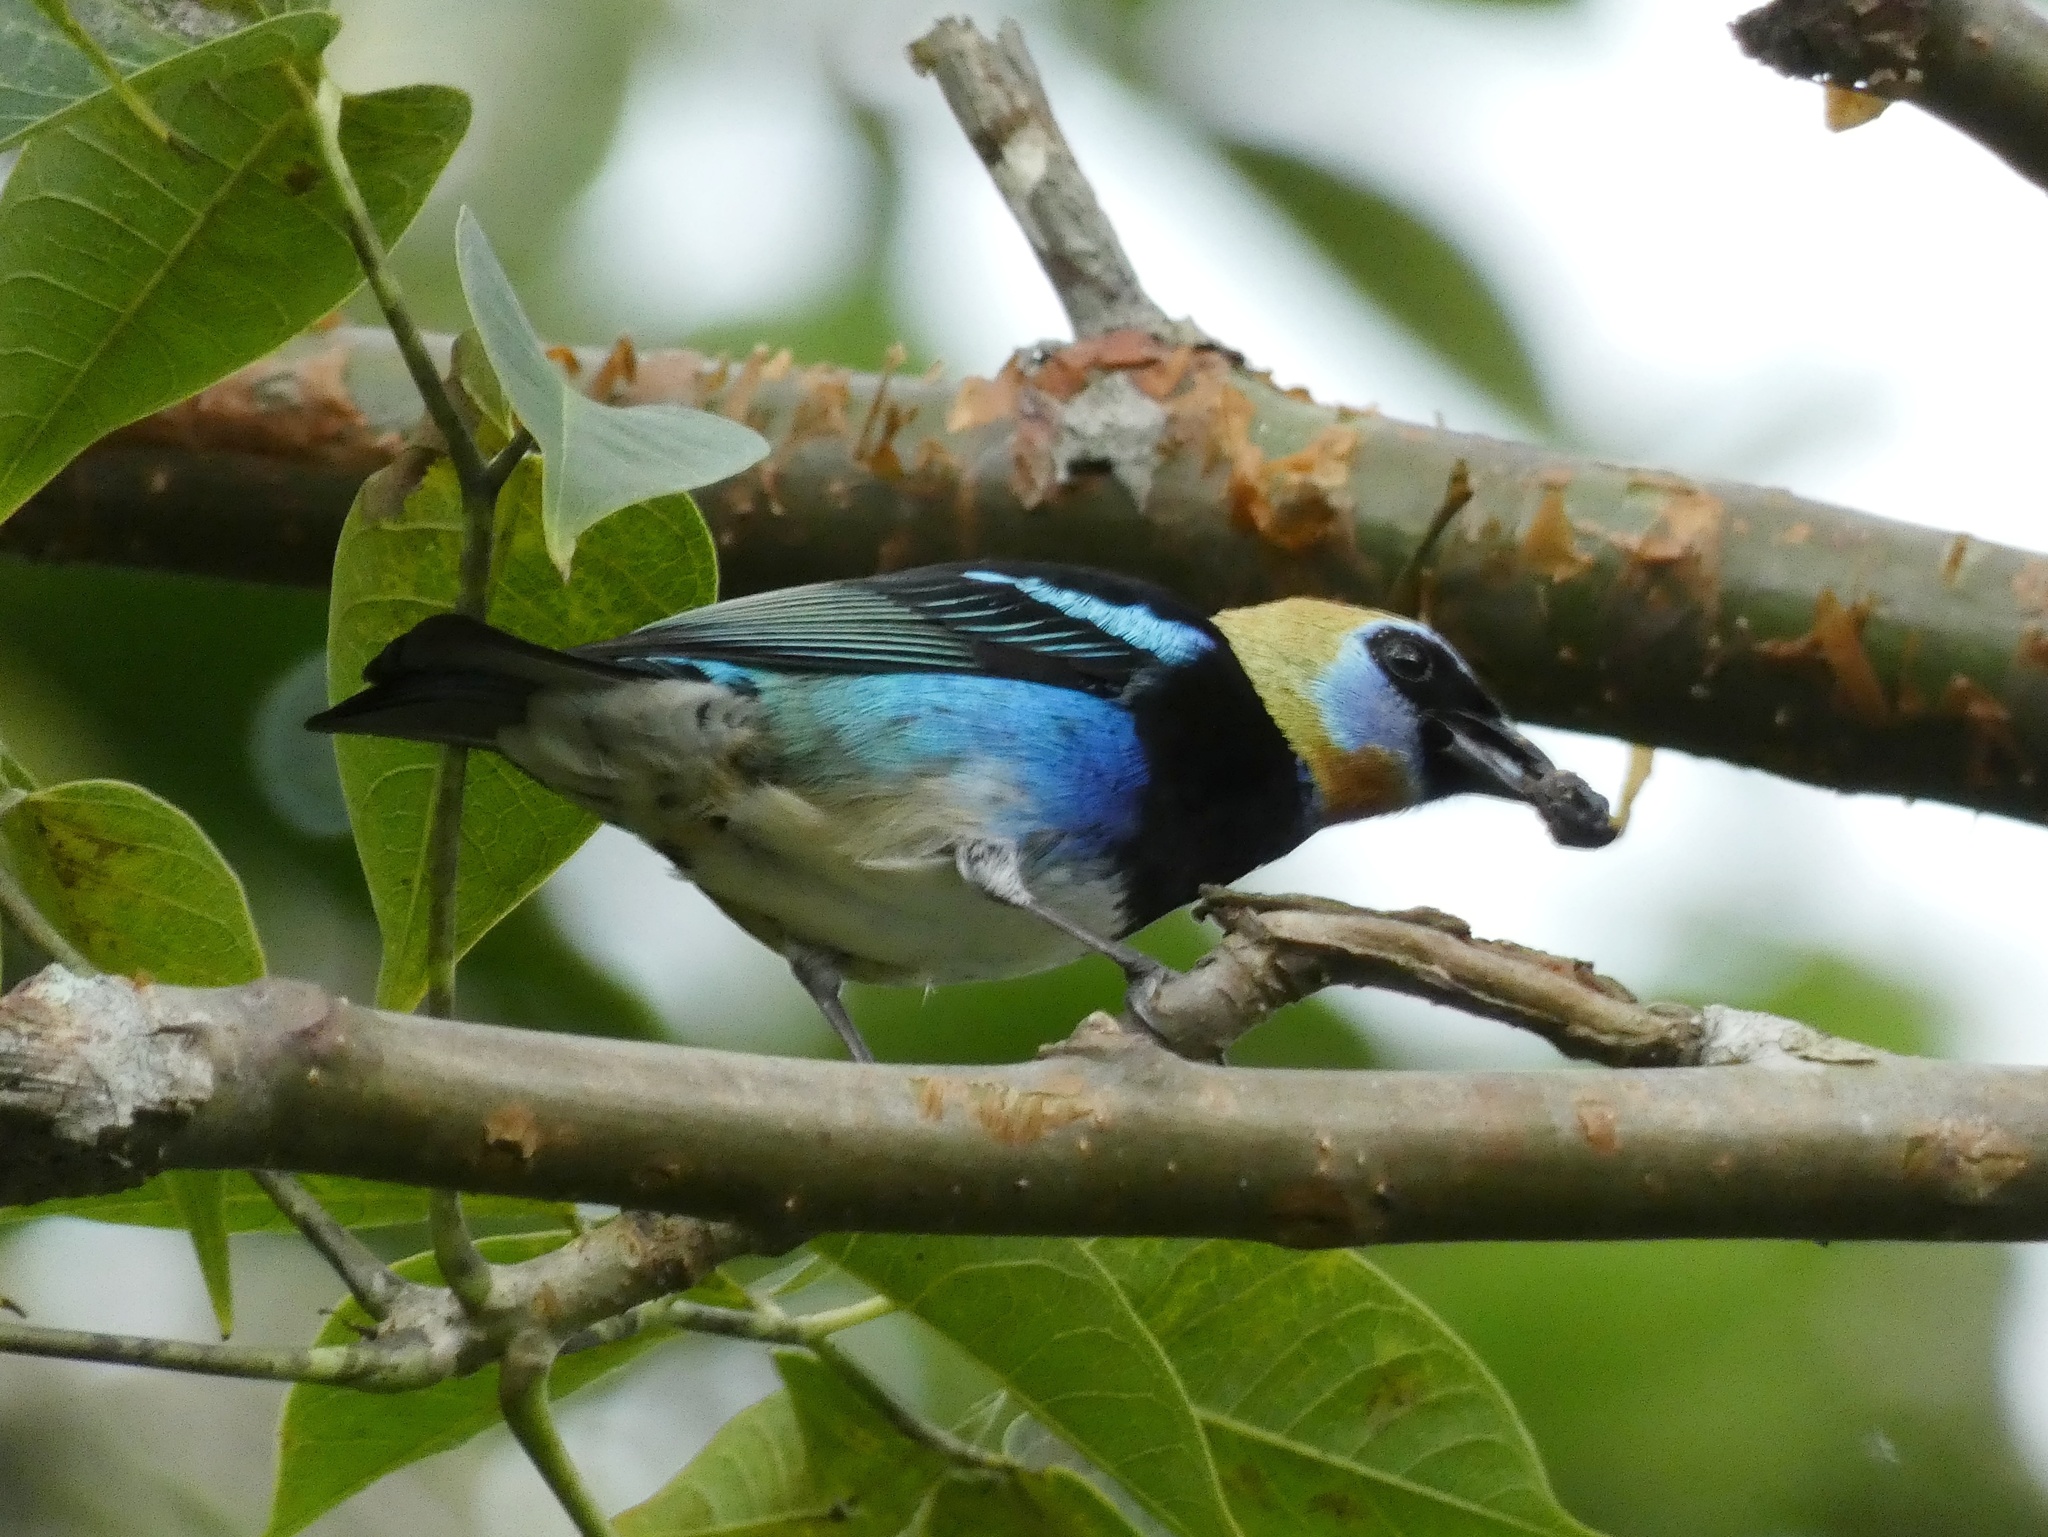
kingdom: Animalia
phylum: Chordata
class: Aves
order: Passeriformes
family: Thraupidae
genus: Stilpnia
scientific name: Stilpnia larvata
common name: Golden-hooded tanager
